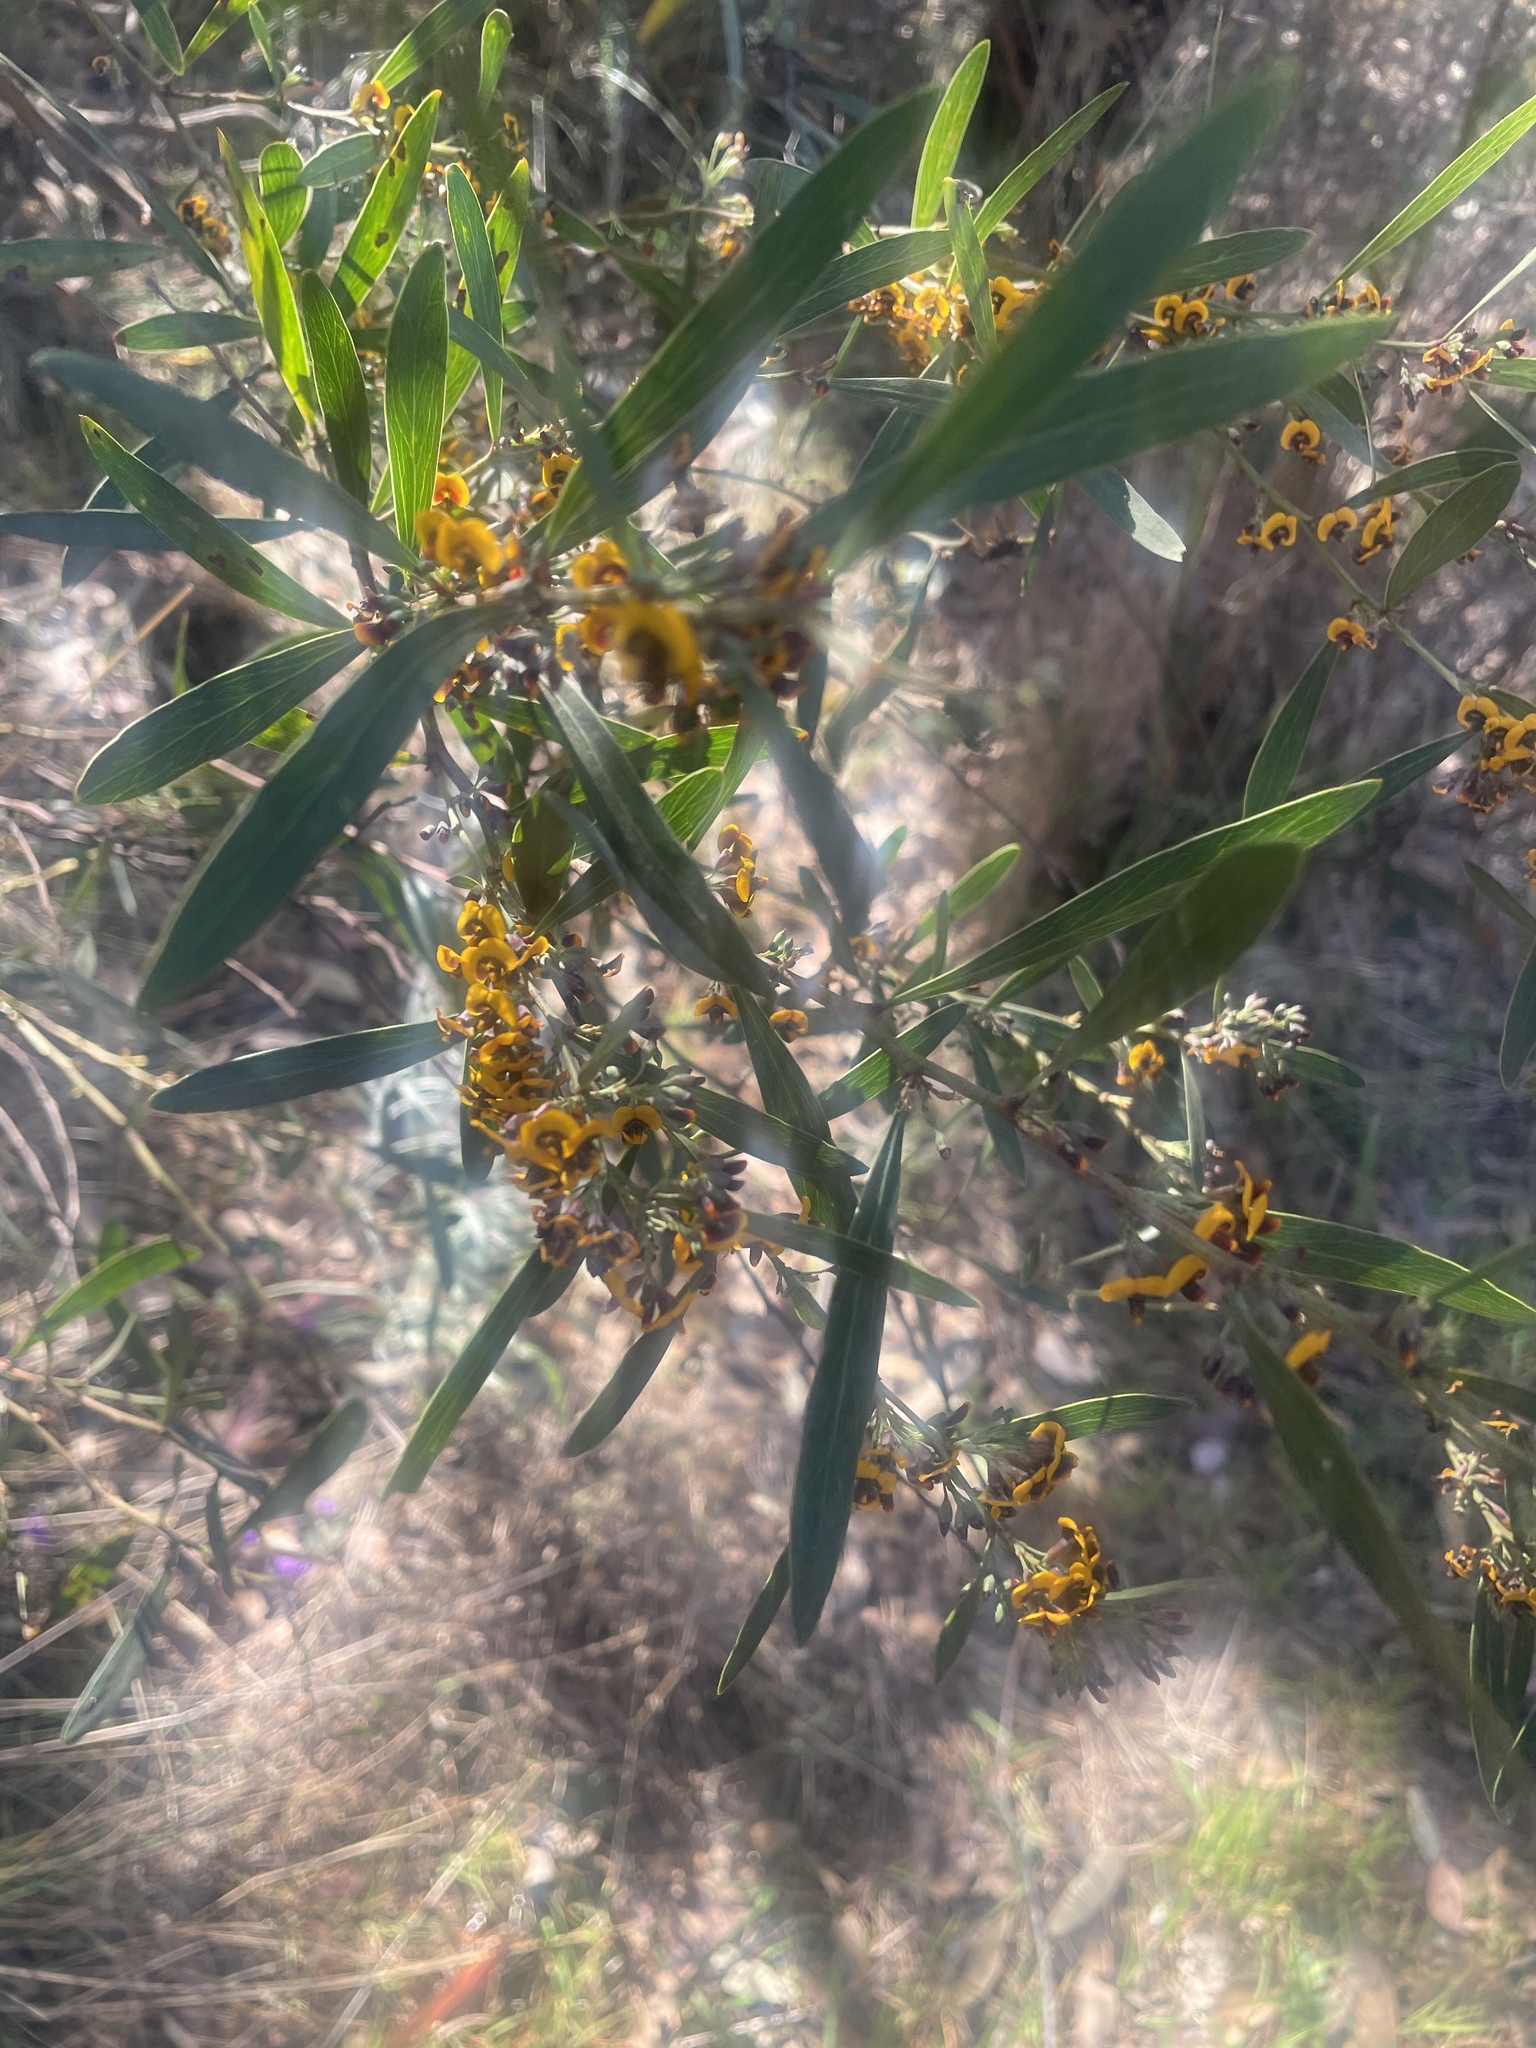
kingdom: Plantae
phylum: Tracheophyta
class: Magnoliopsida
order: Fabales
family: Fabaceae
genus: Daviesia
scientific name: Daviesia mimosoides
